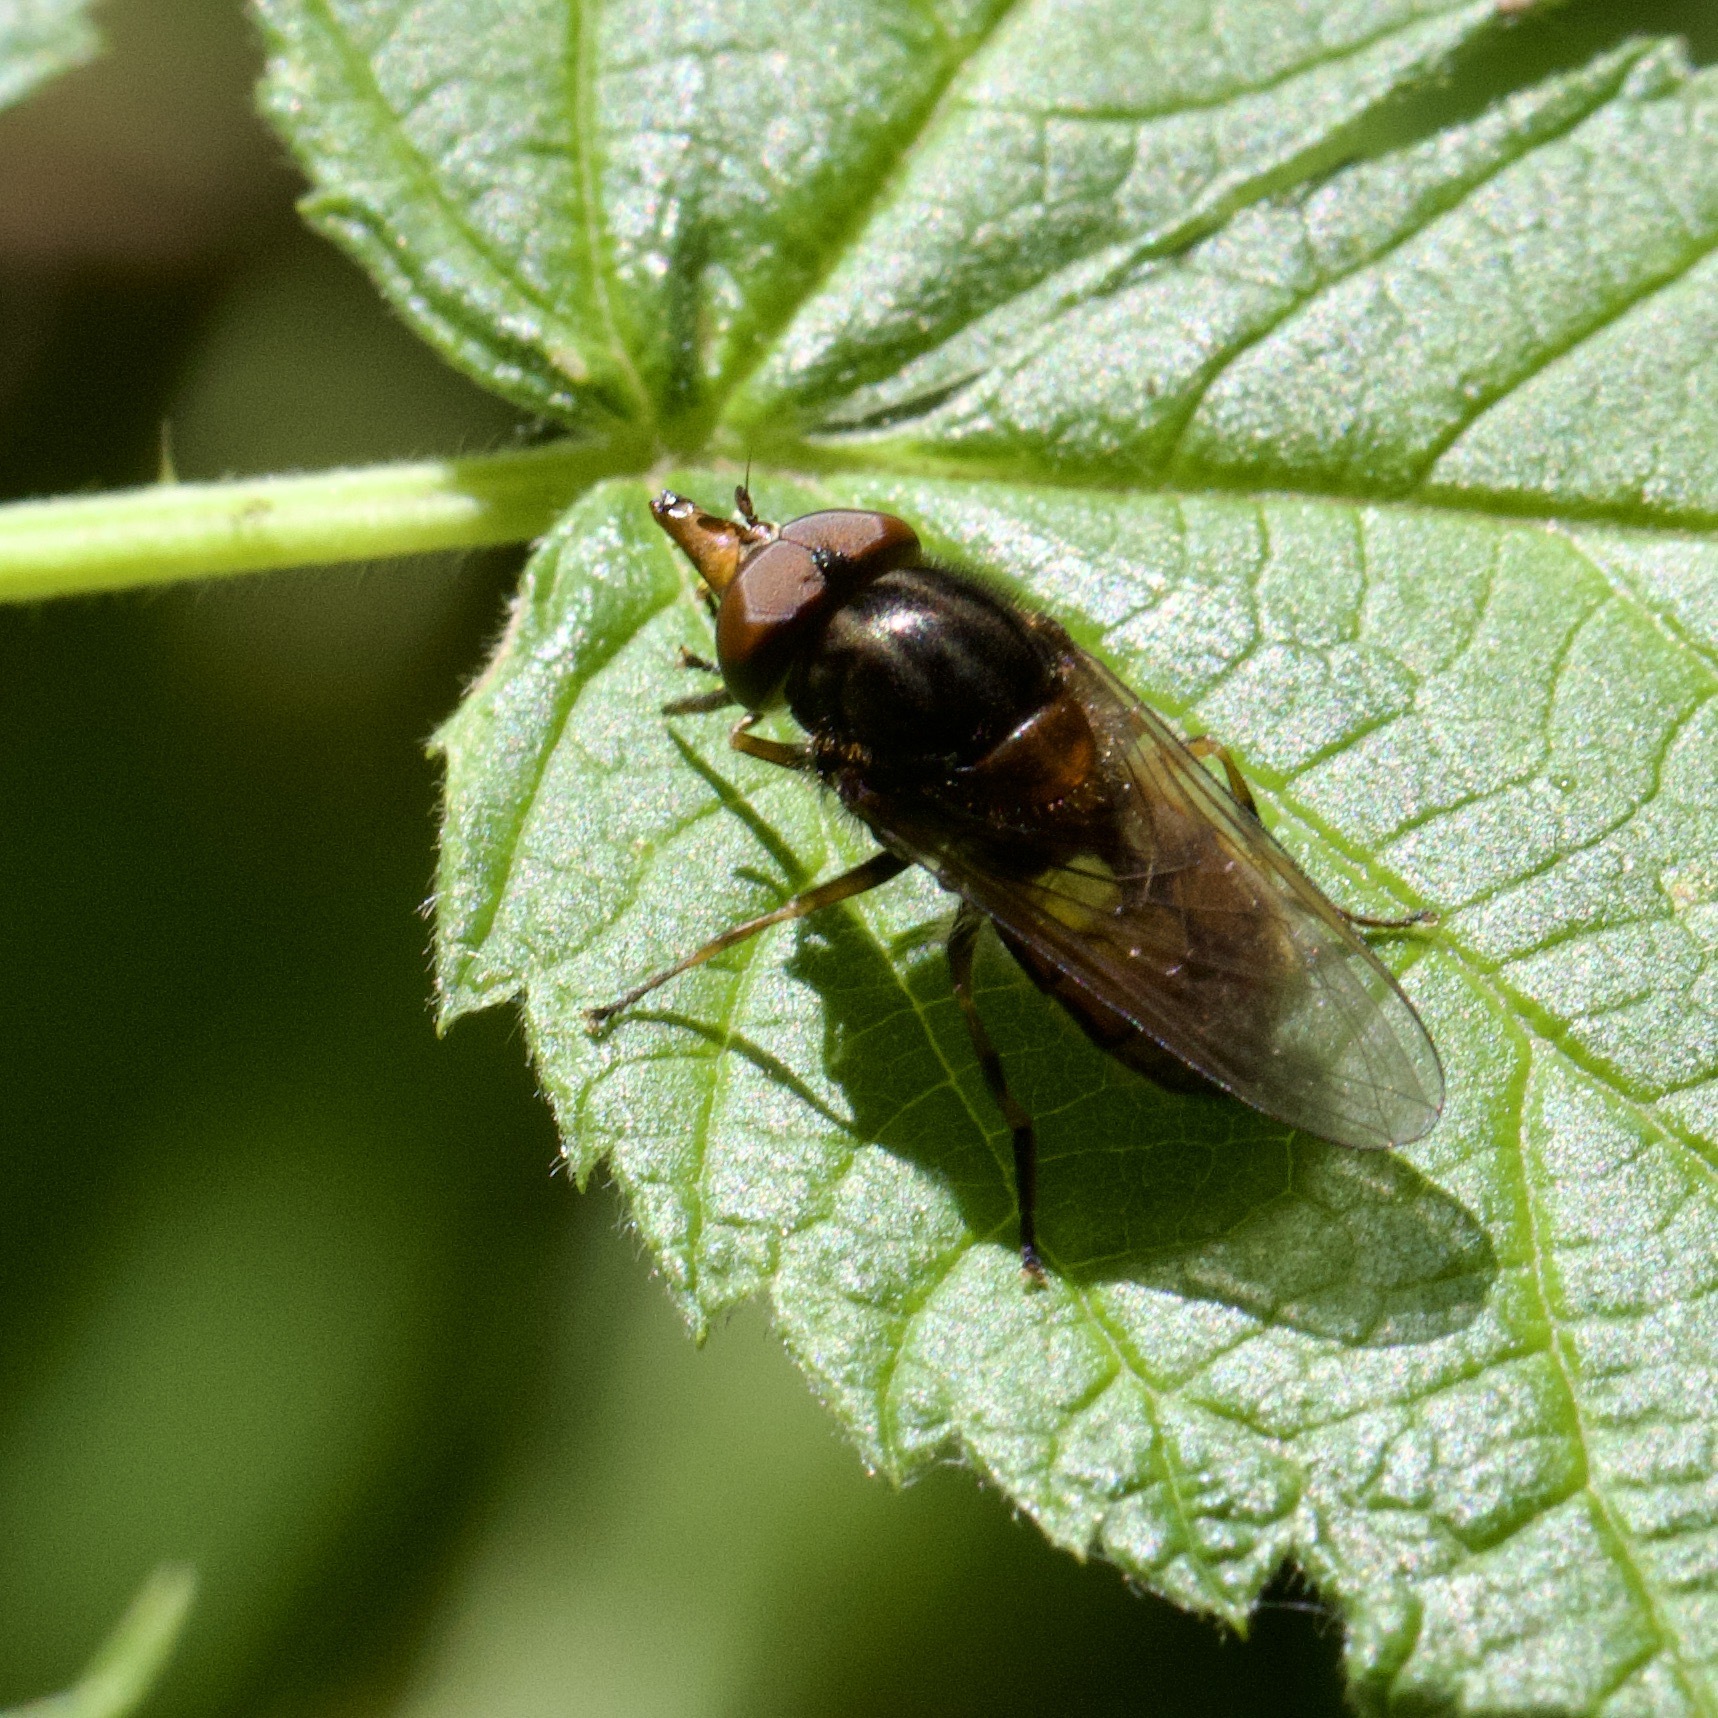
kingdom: Animalia
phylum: Arthropoda
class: Insecta
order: Diptera
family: Syrphidae
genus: Rhingia
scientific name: Rhingia campestris
